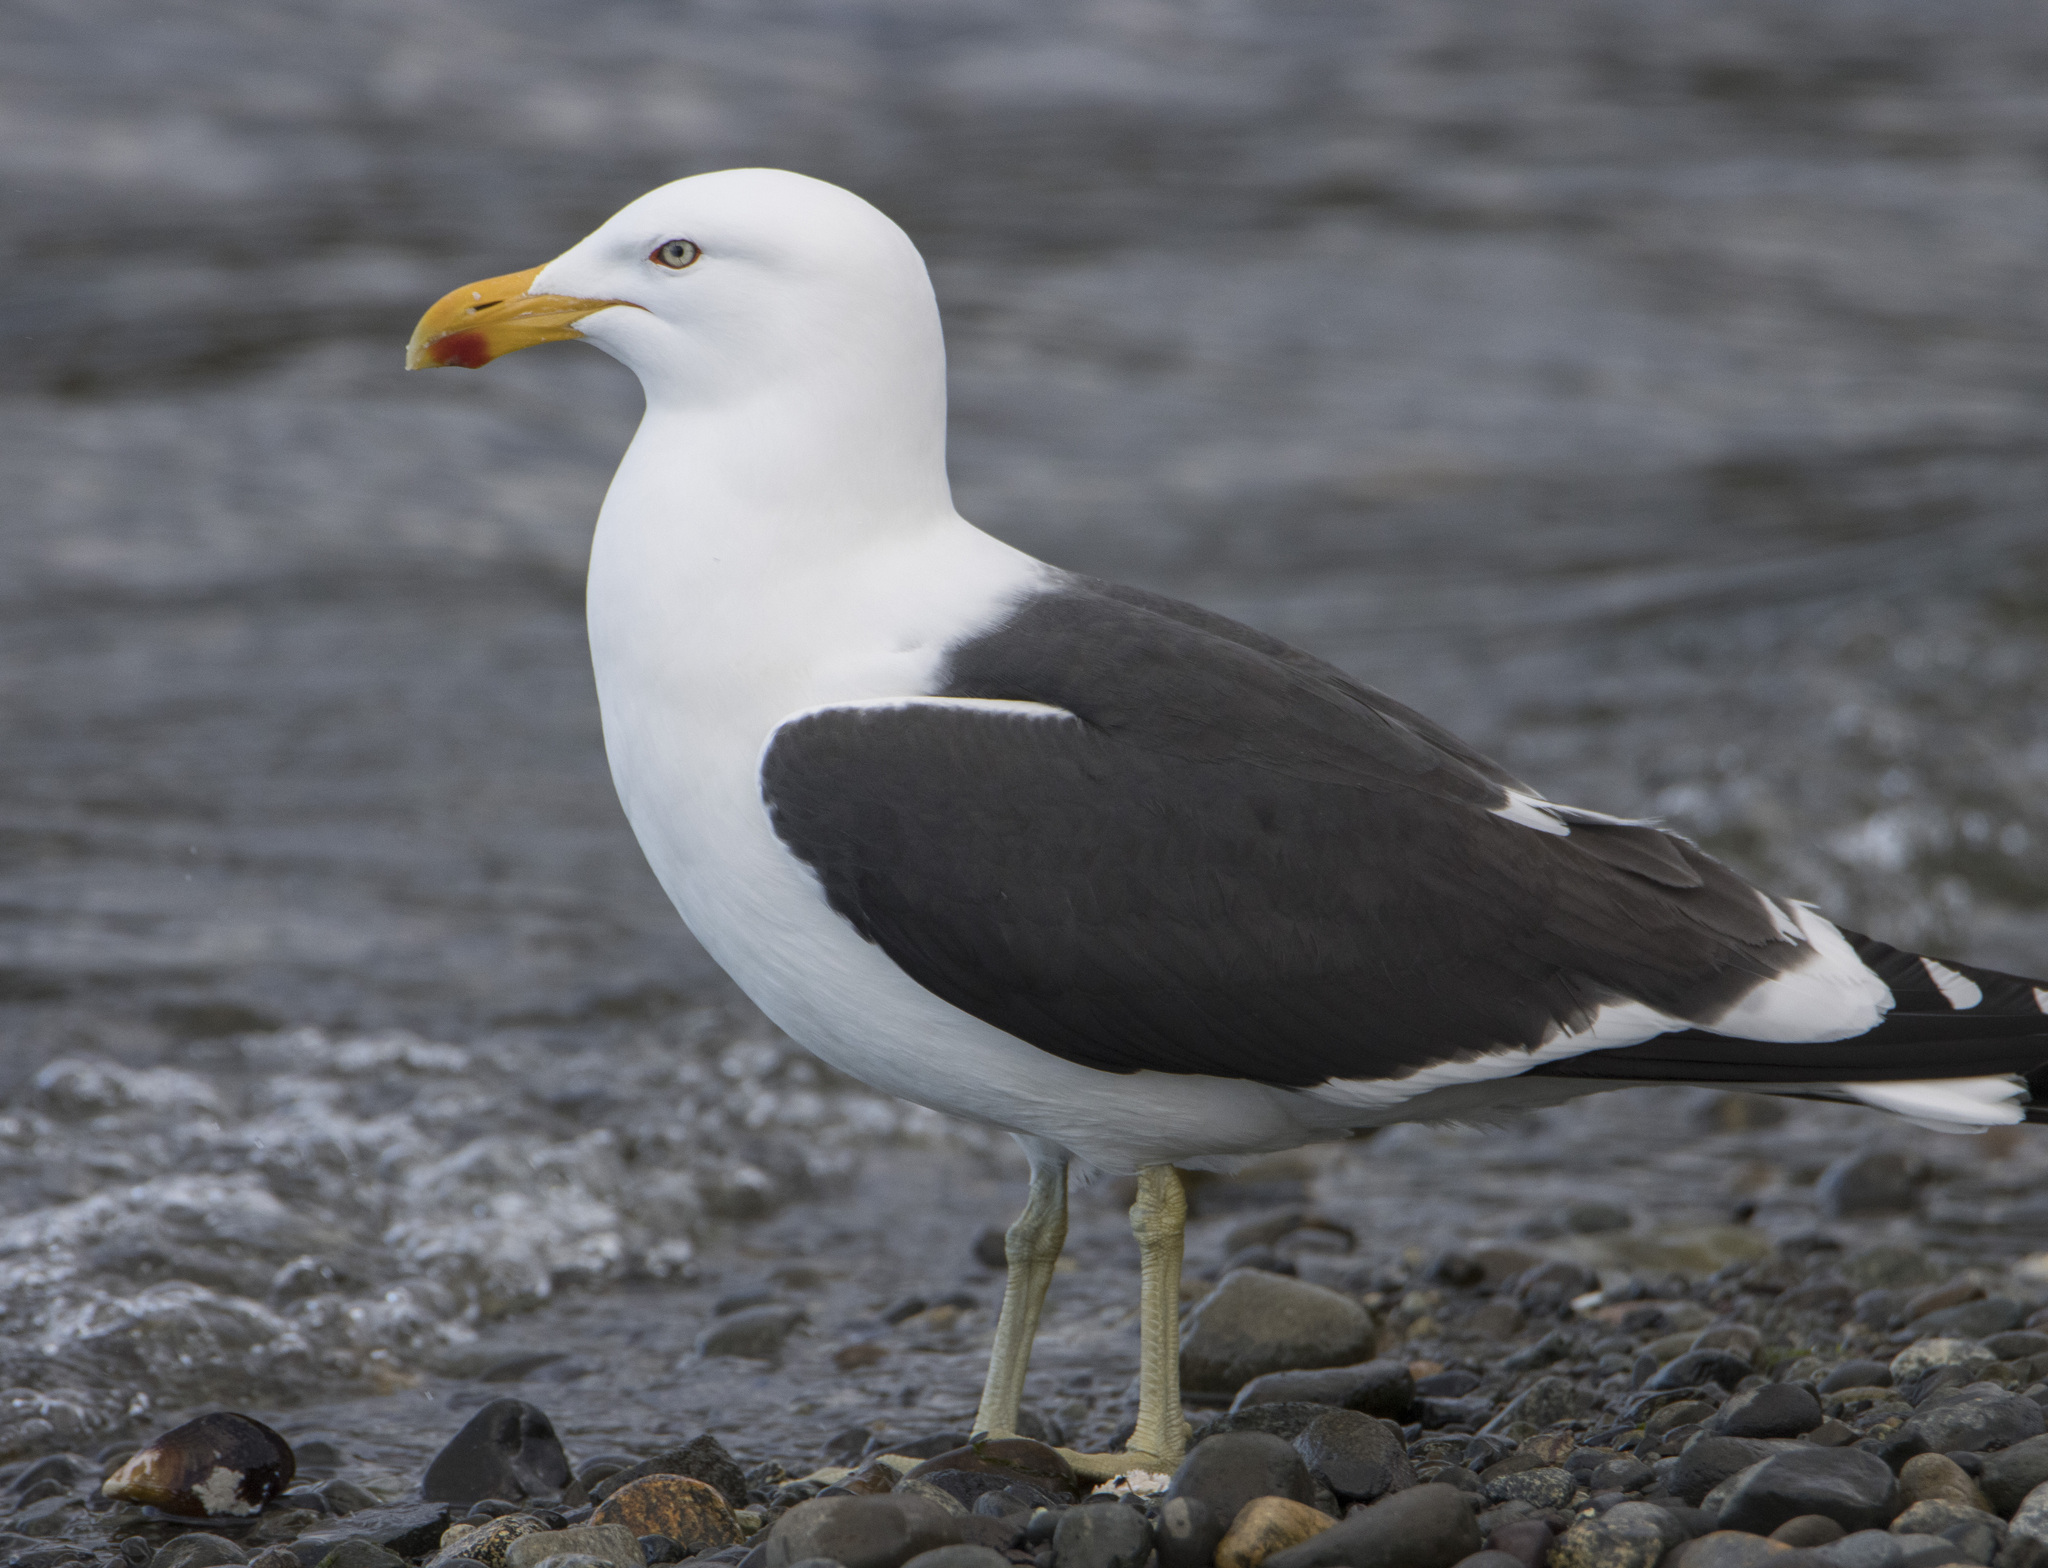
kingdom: Animalia
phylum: Chordata
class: Aves
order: Charadriiformes
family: Laridae
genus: Larus
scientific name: Larus dominicanus
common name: Kelp gull
